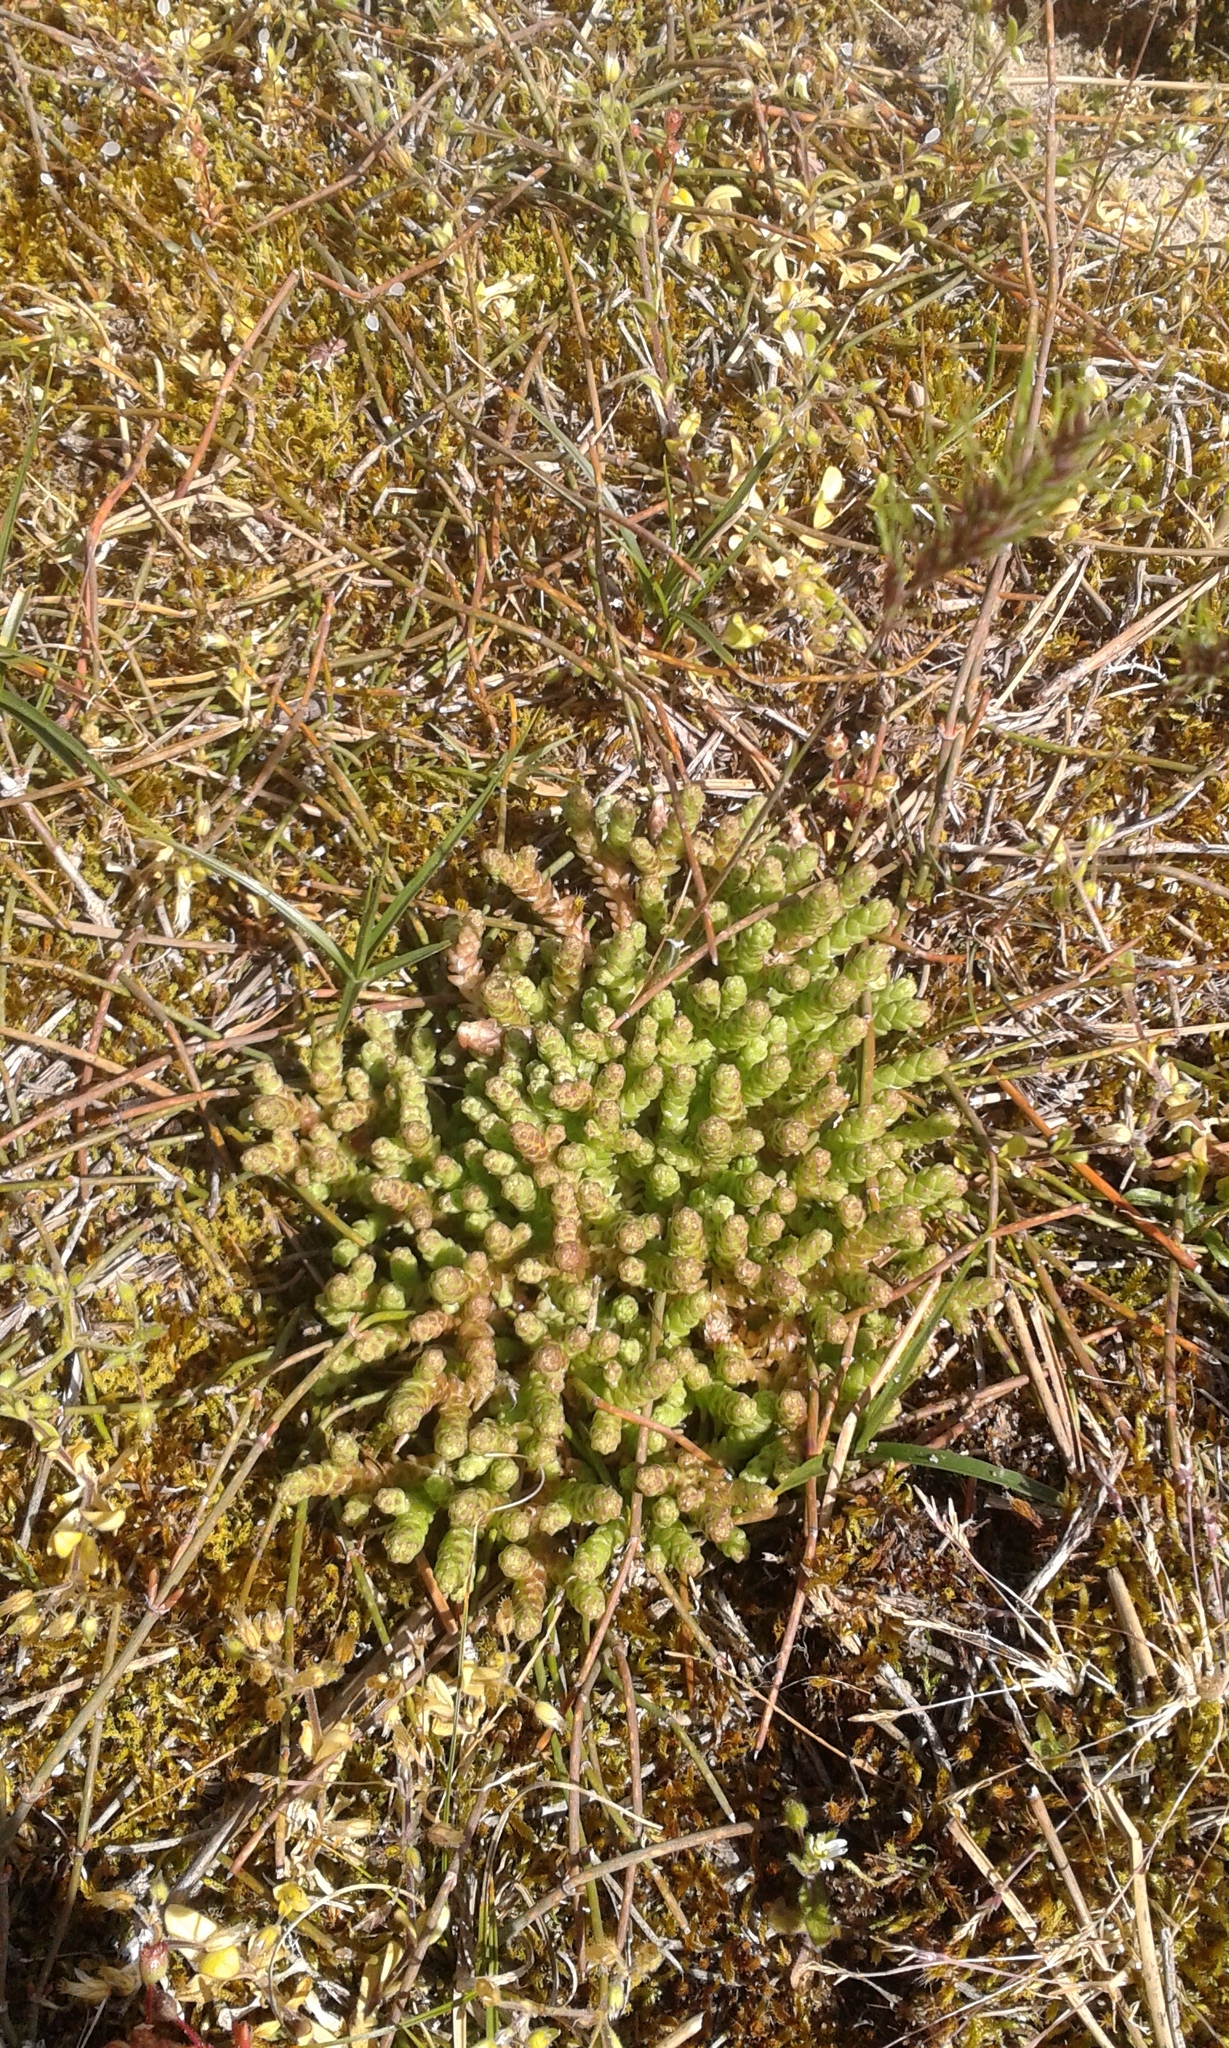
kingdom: Plantae
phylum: Tracheophyta
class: Magnoliopsida
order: Saxifragales
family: Crassulaceae
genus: Sedum
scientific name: Sedum acre
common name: Biting stonecrop
